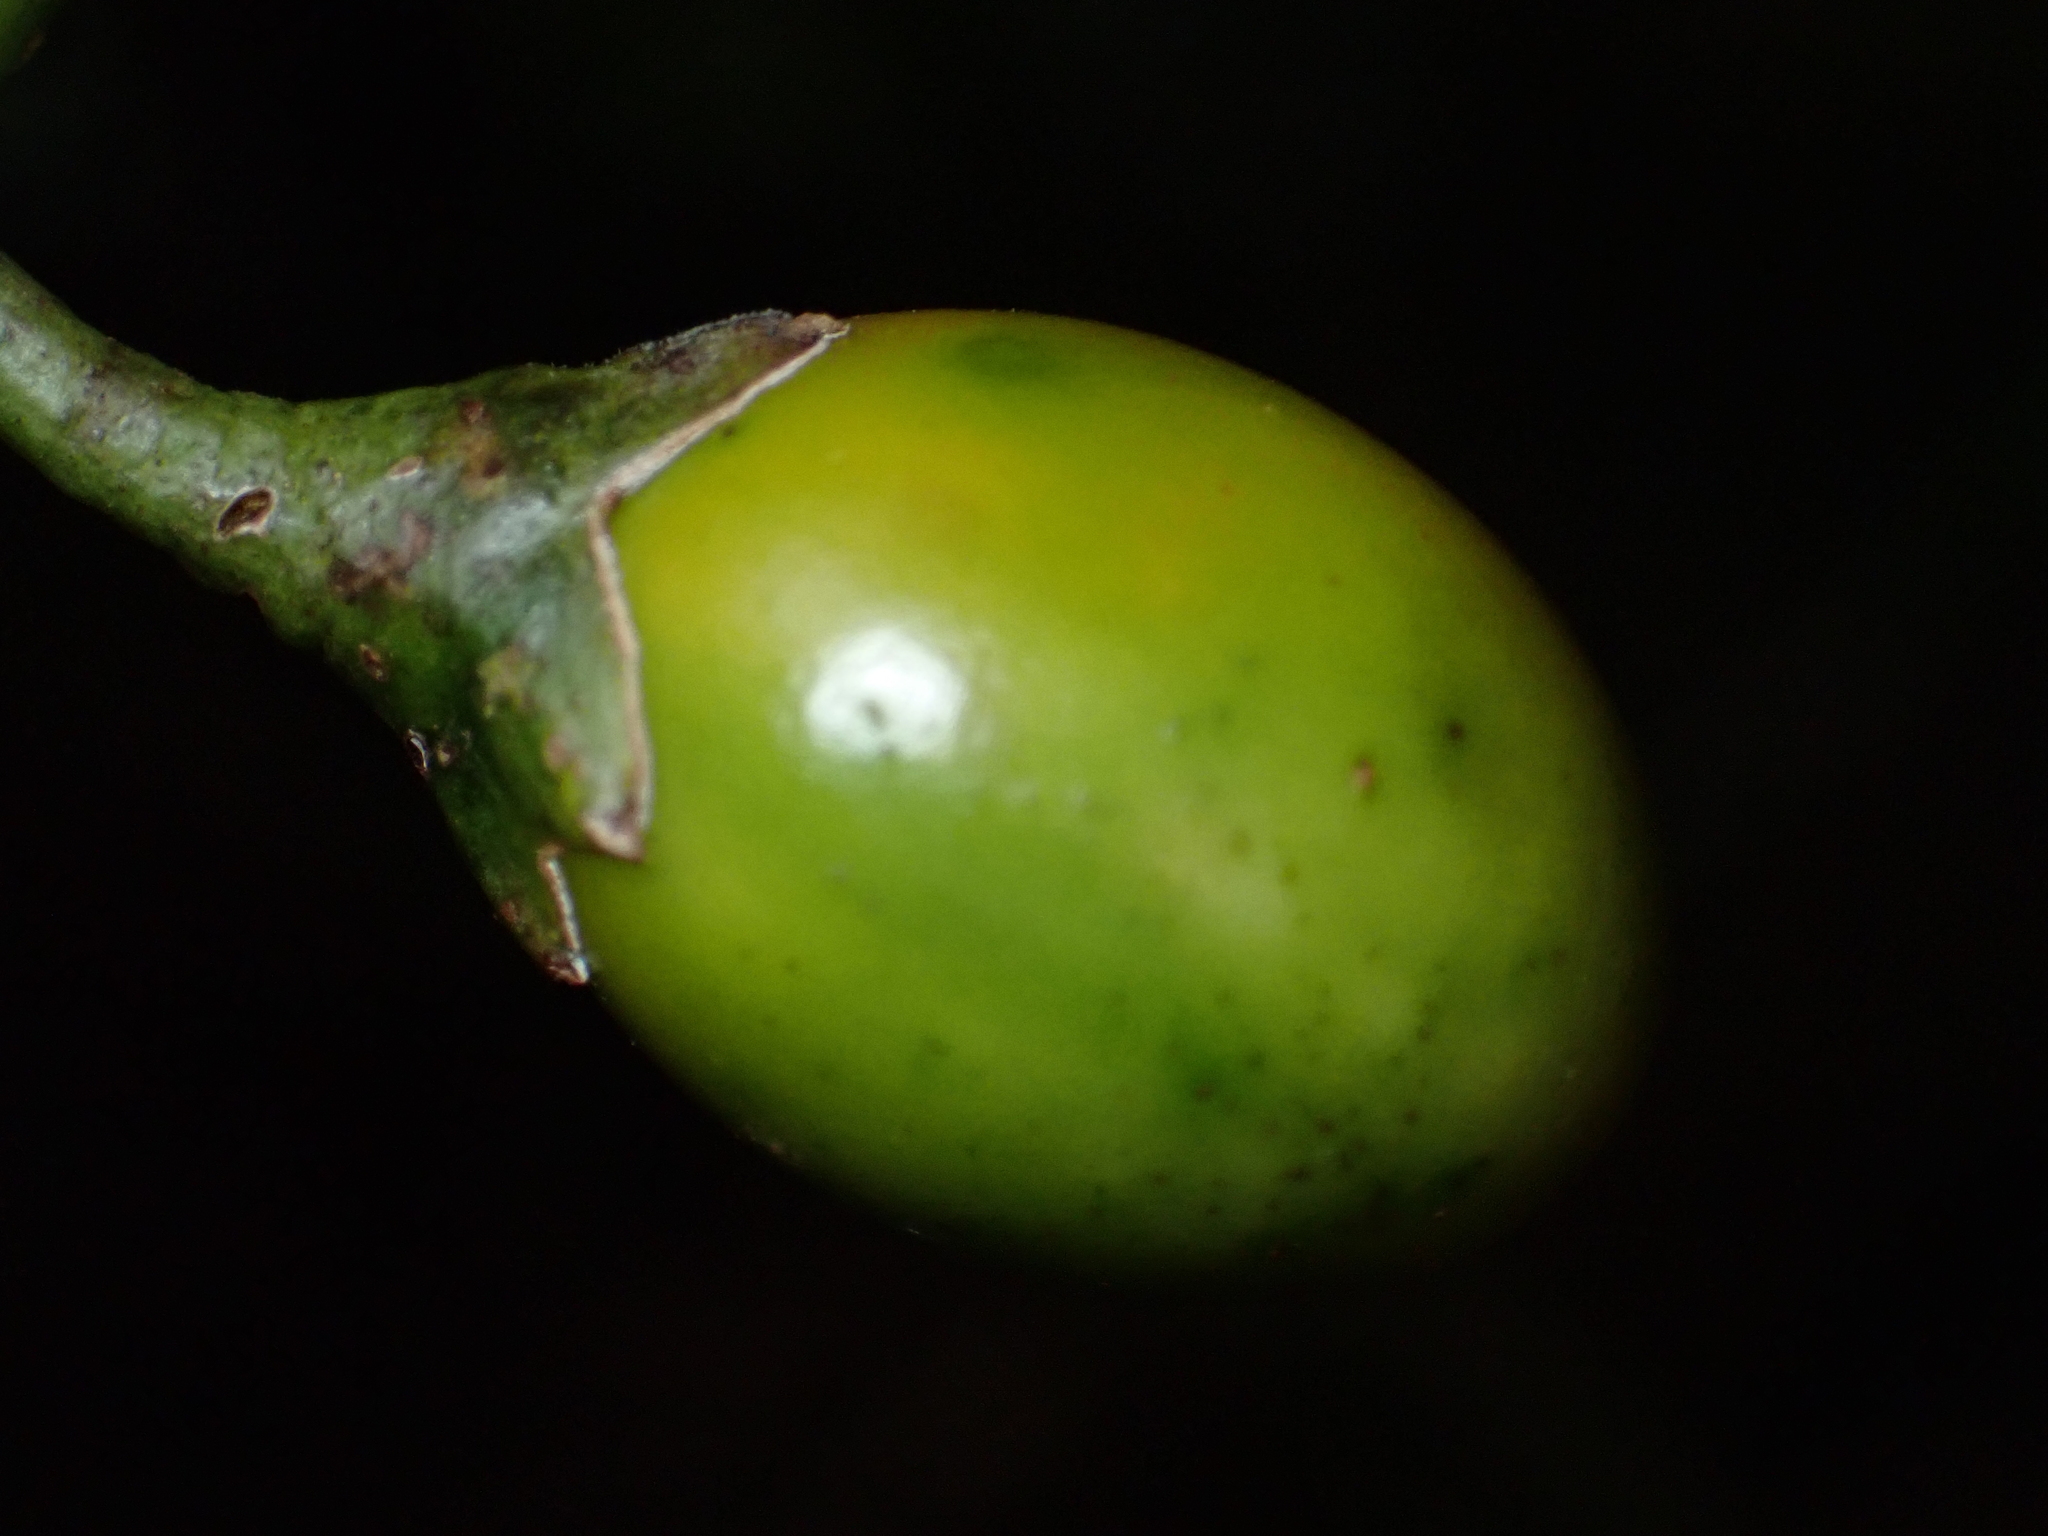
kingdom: Plantae
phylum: Tracheophyta
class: Magnoliopsida
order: Solanales
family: Solanaceae
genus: Solanum
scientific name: Solanum aviculare
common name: New zealand nightshade
